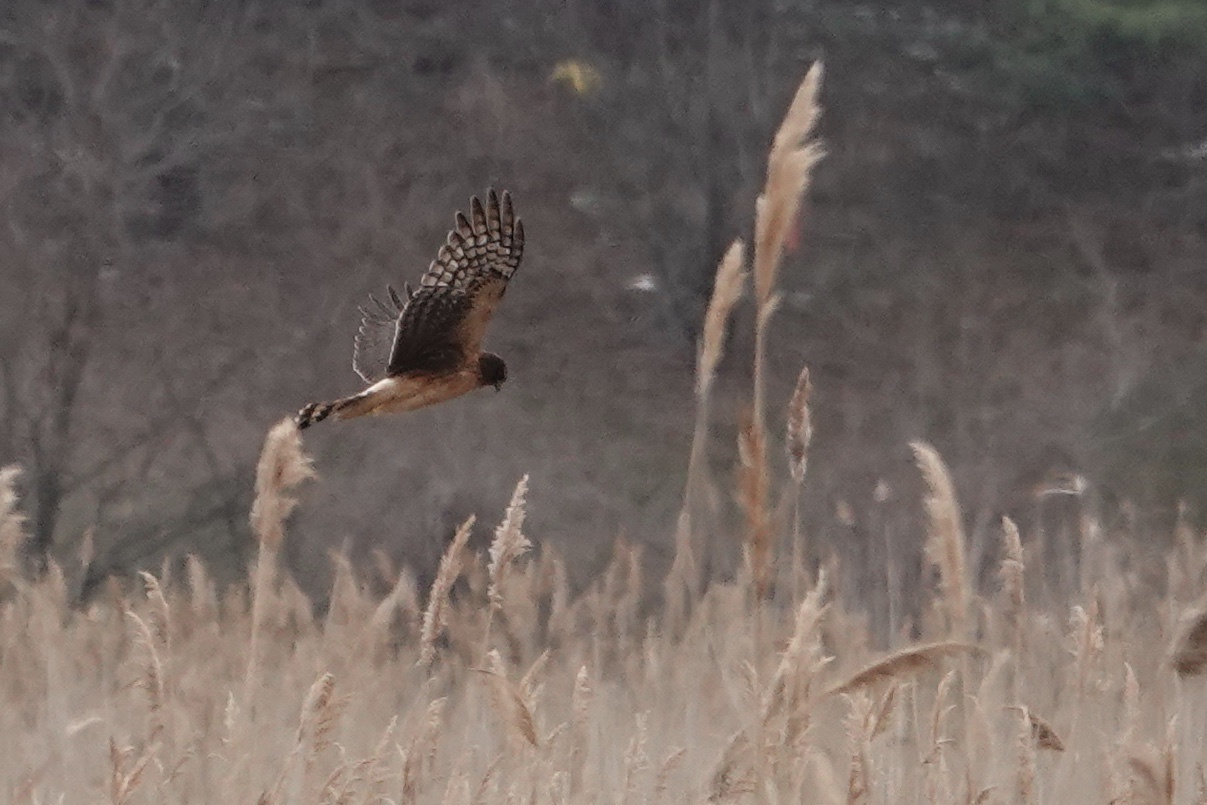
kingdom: Animalia
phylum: Chordata
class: Aves
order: Accipitriformes
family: Accipitridae
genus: Circus
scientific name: Circus cyaneus
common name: Hen harrier
